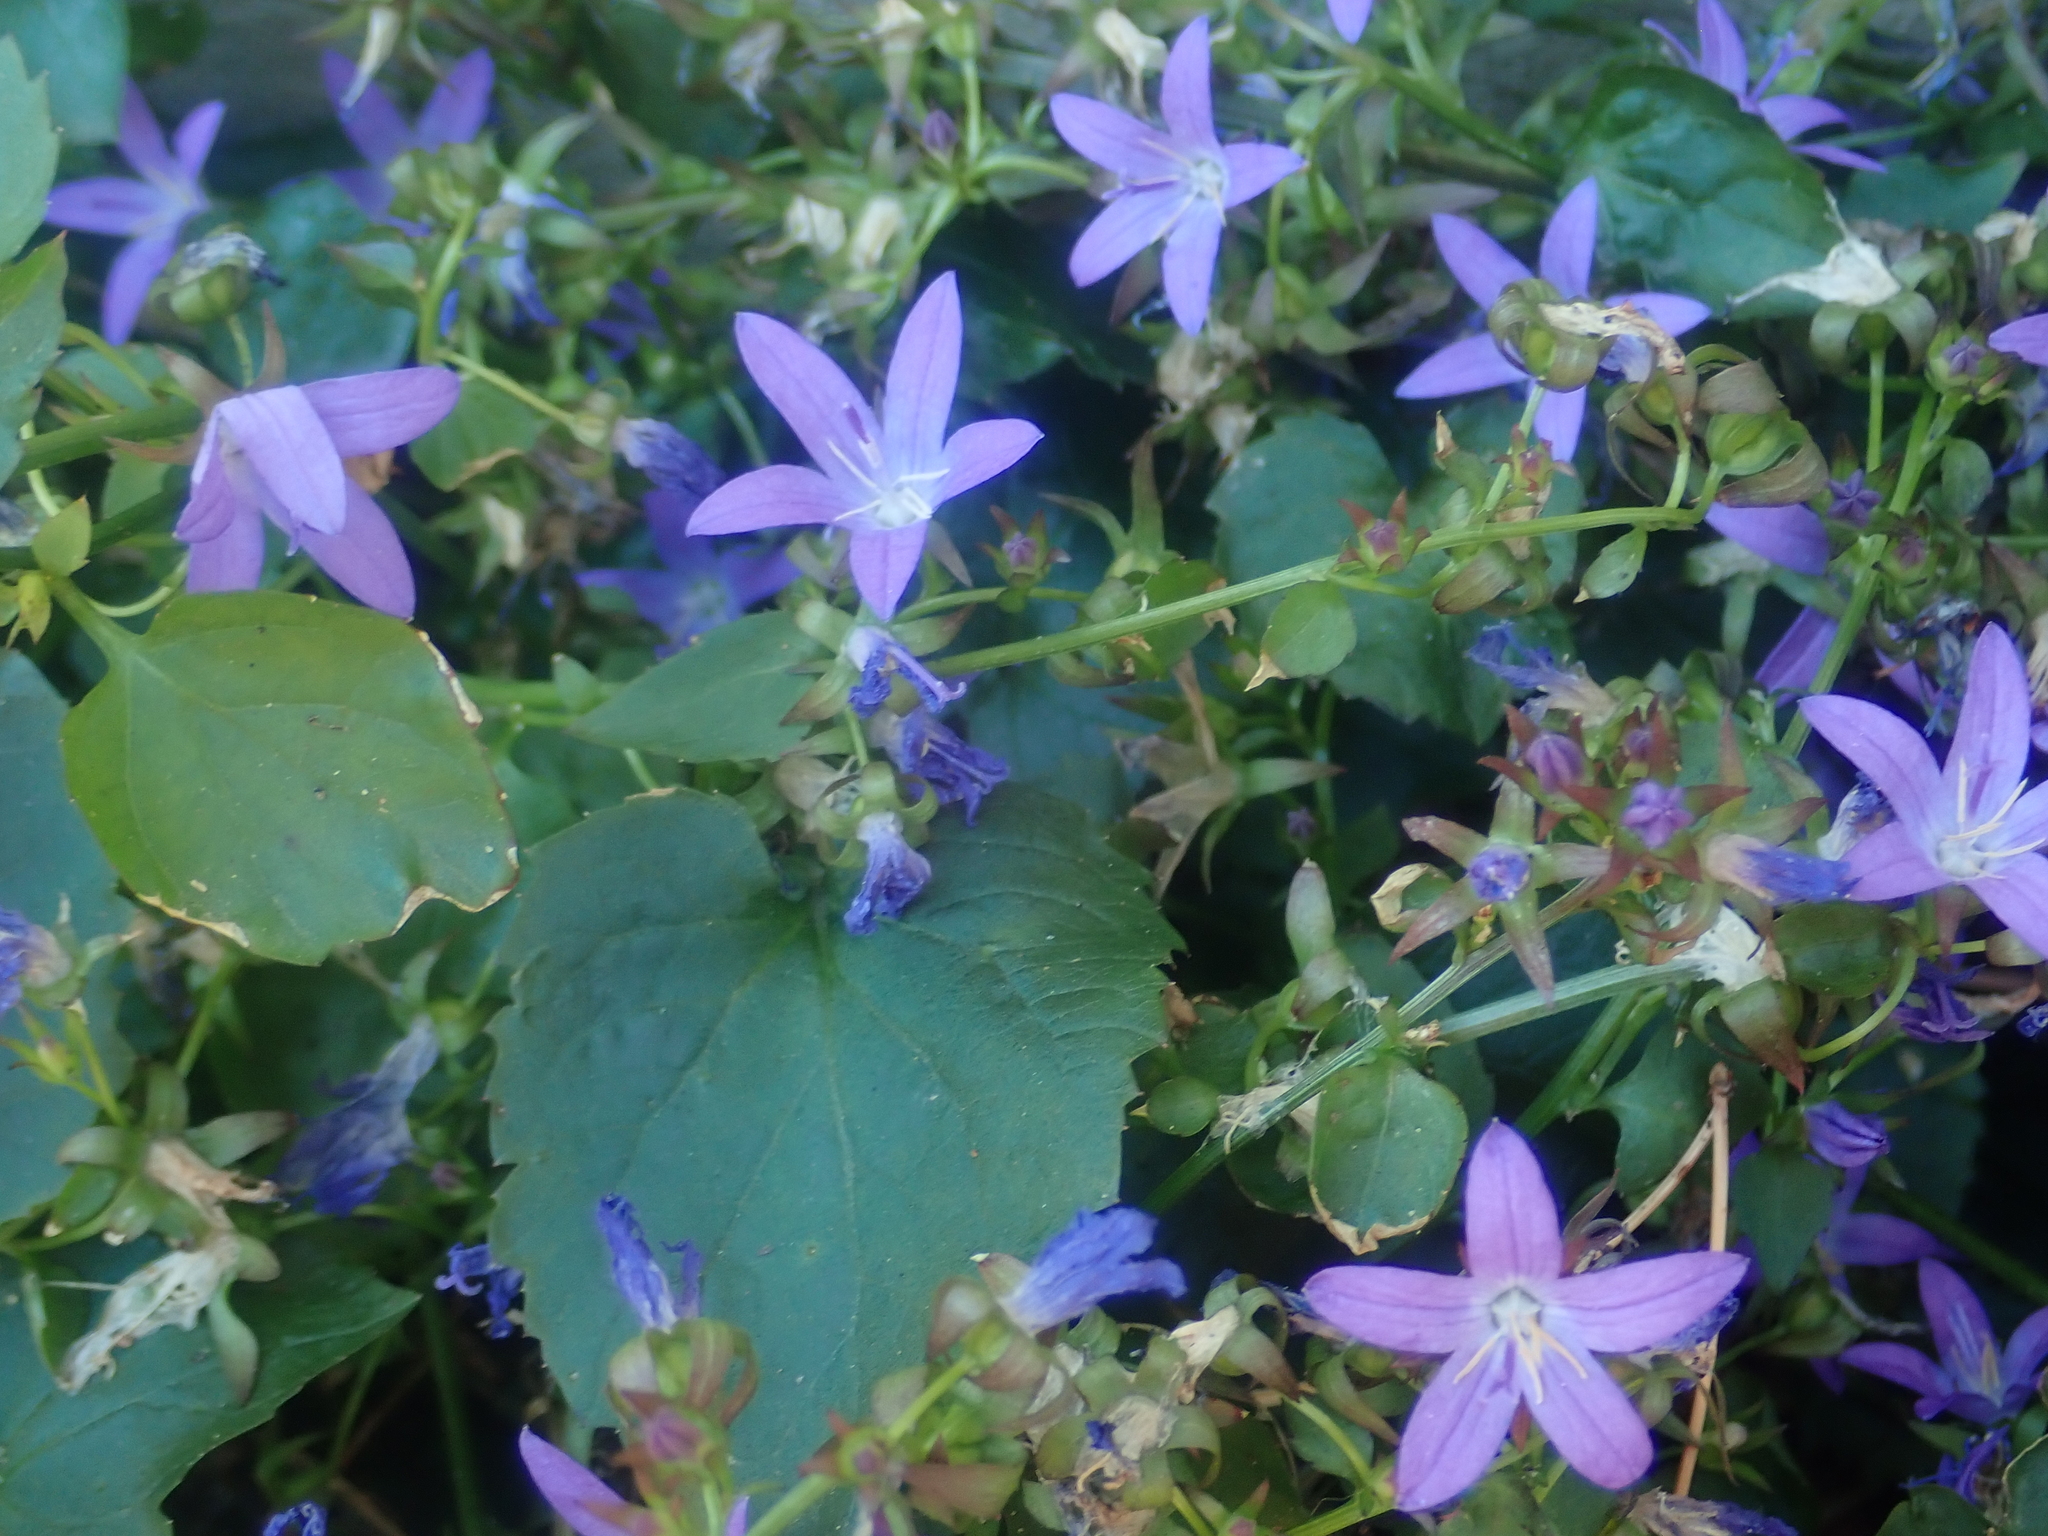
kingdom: Plantae
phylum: Tracheophyta
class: Magnoliopsida
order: Asterales
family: Campanulaceae
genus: Campanula
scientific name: Campanula poscharskyana
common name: Trailing bellflower
